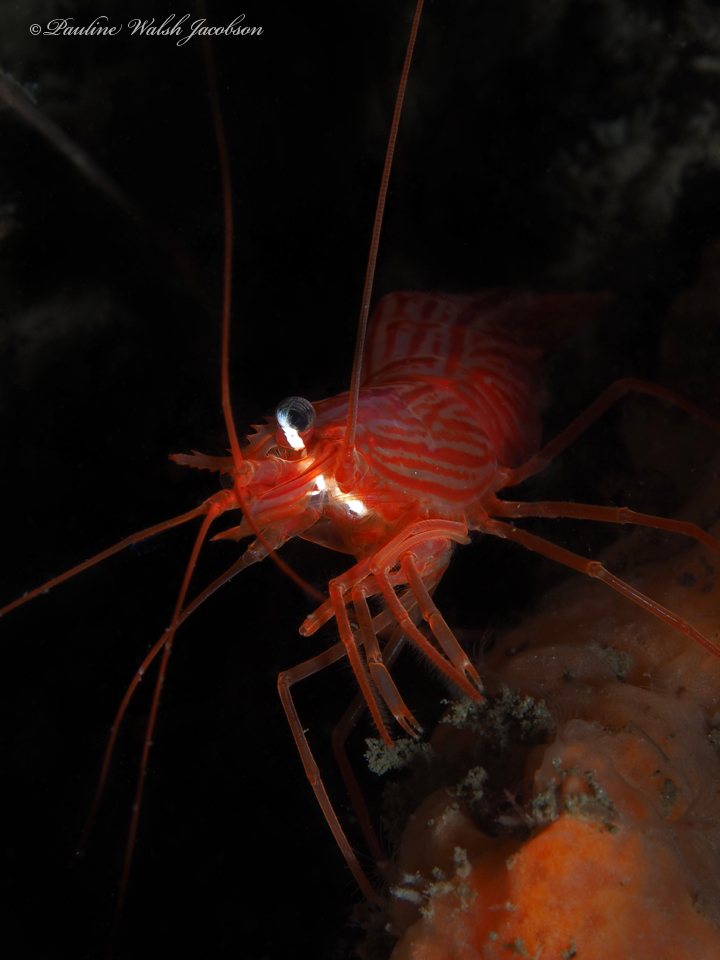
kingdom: Animalia
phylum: Arthropoda
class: Malacostraca
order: Decapoda
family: Lysmatidae
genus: Lysmata
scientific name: Lysmata rafa
